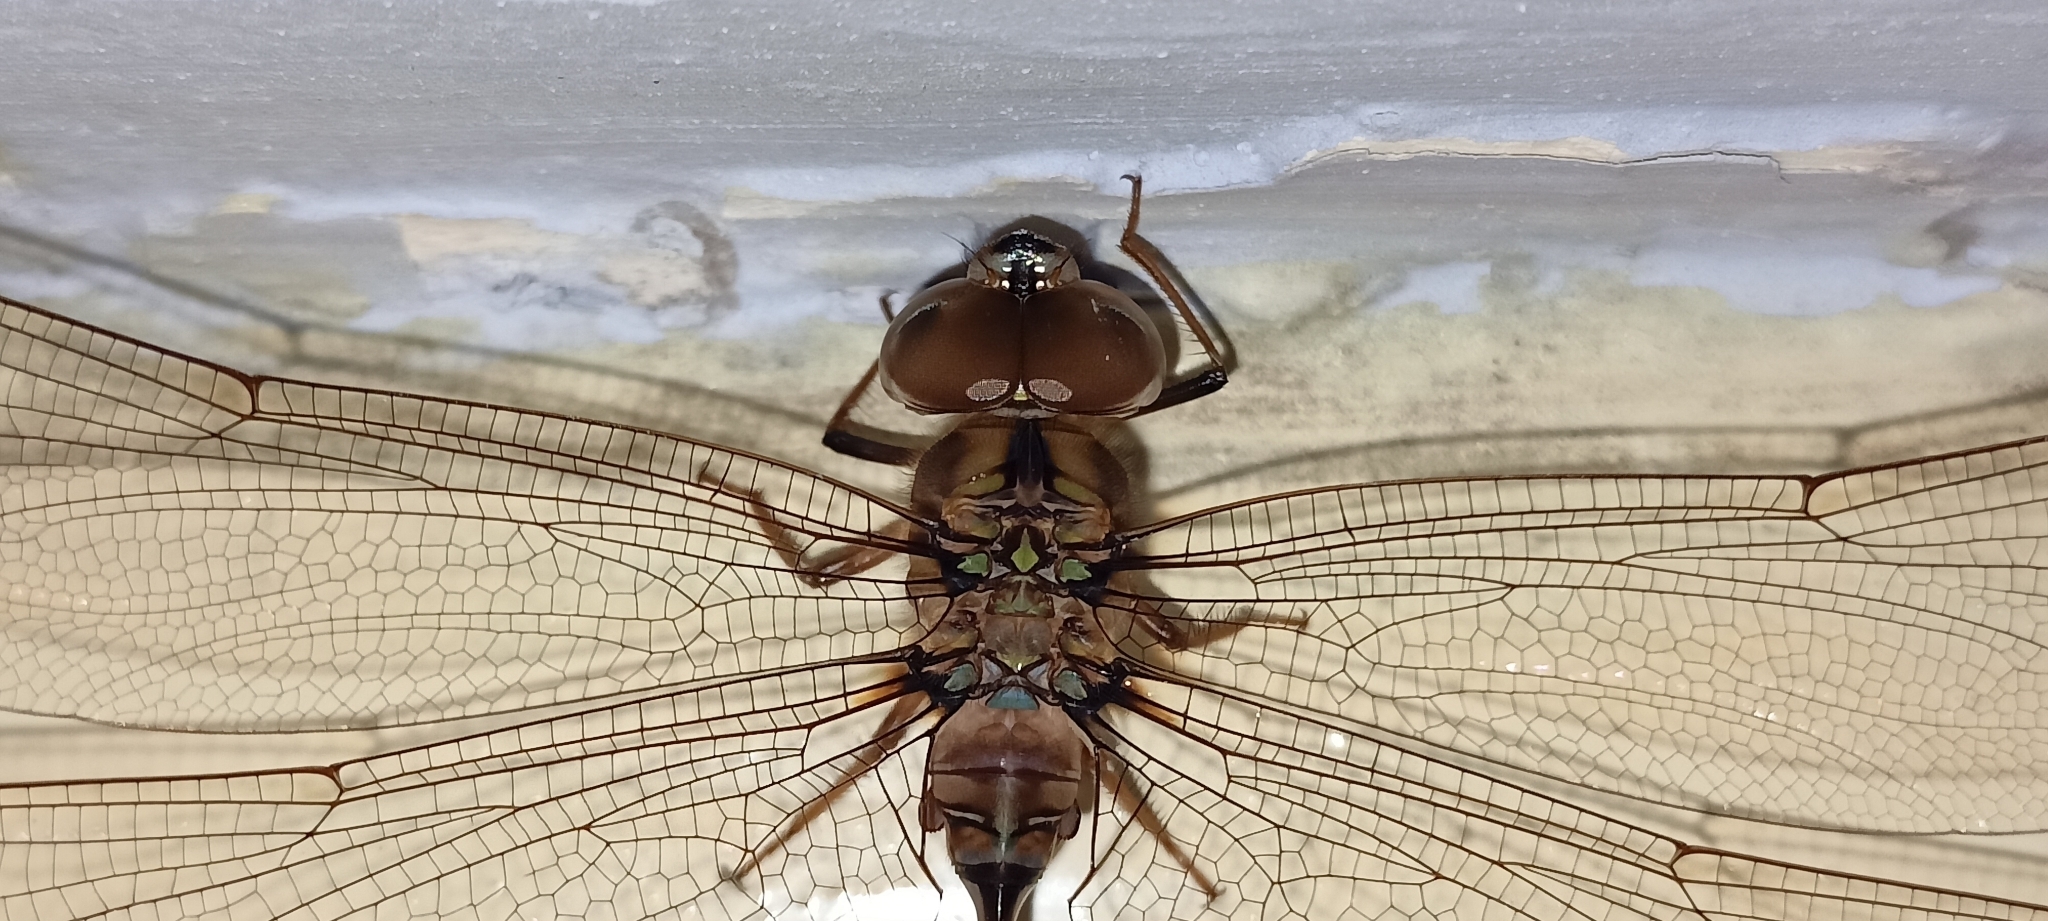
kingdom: Animalia
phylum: Arthropoda
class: Insecta
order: Odonata
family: Aeshnidae
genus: Gynacantha
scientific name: Gynacantha dravida
